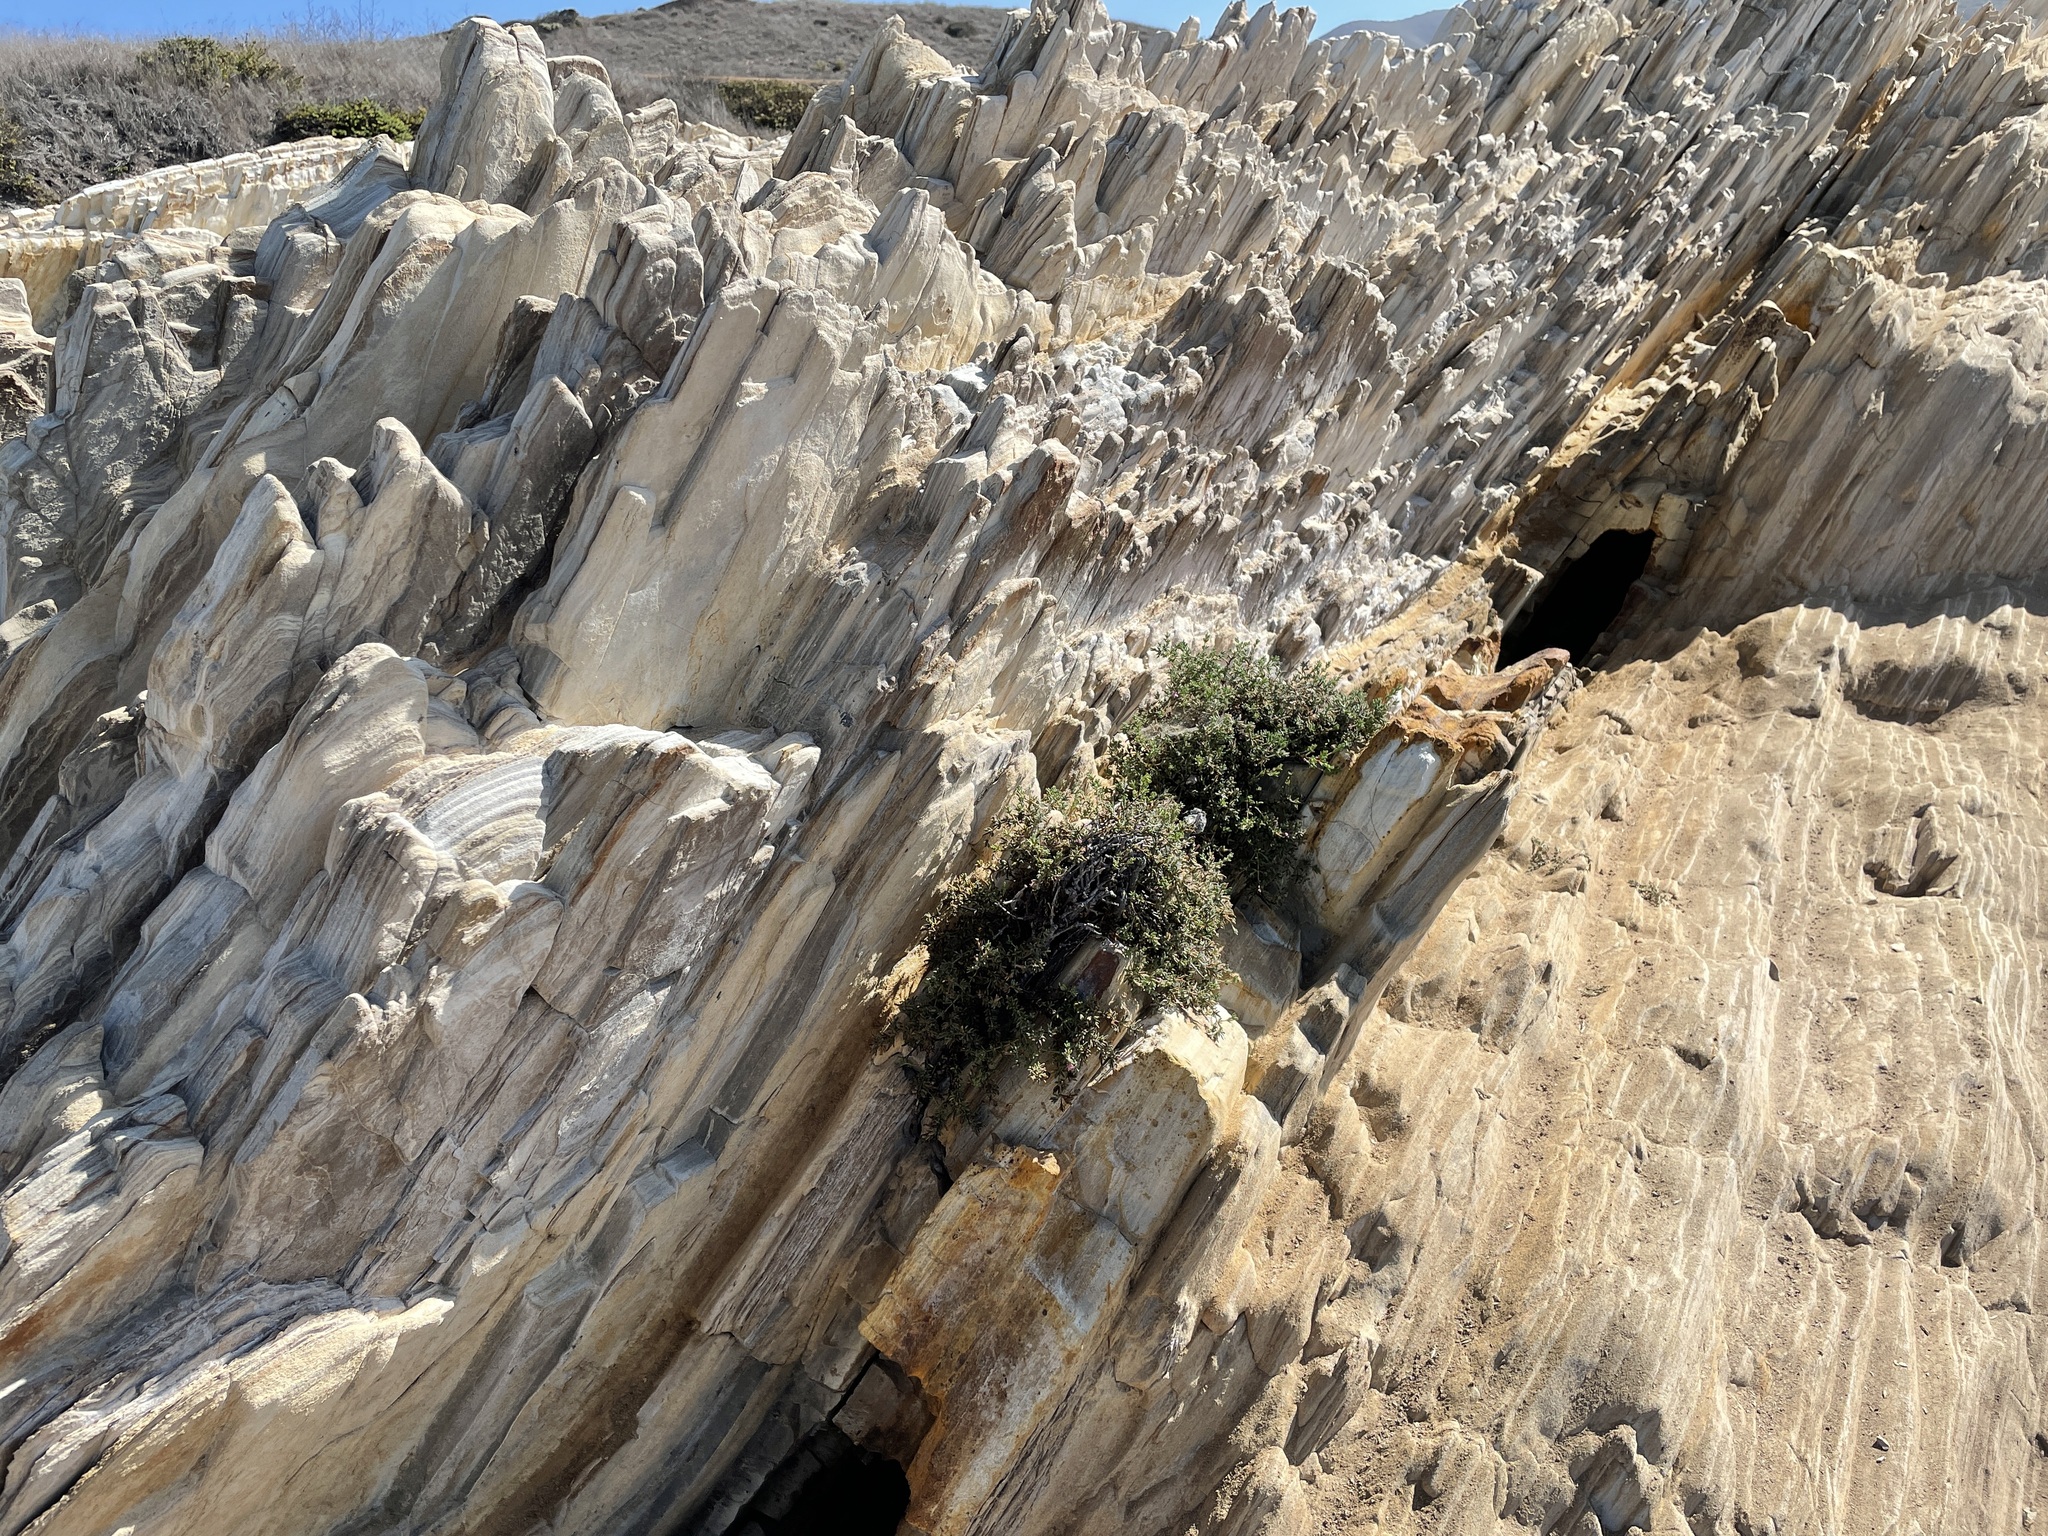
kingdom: Plantae
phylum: Tracheophyta
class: Magnoliopsida
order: Caryophyllales
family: Frankeniaceae
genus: Frankenia
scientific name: Frankenia salina
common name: Alkali seaheath
